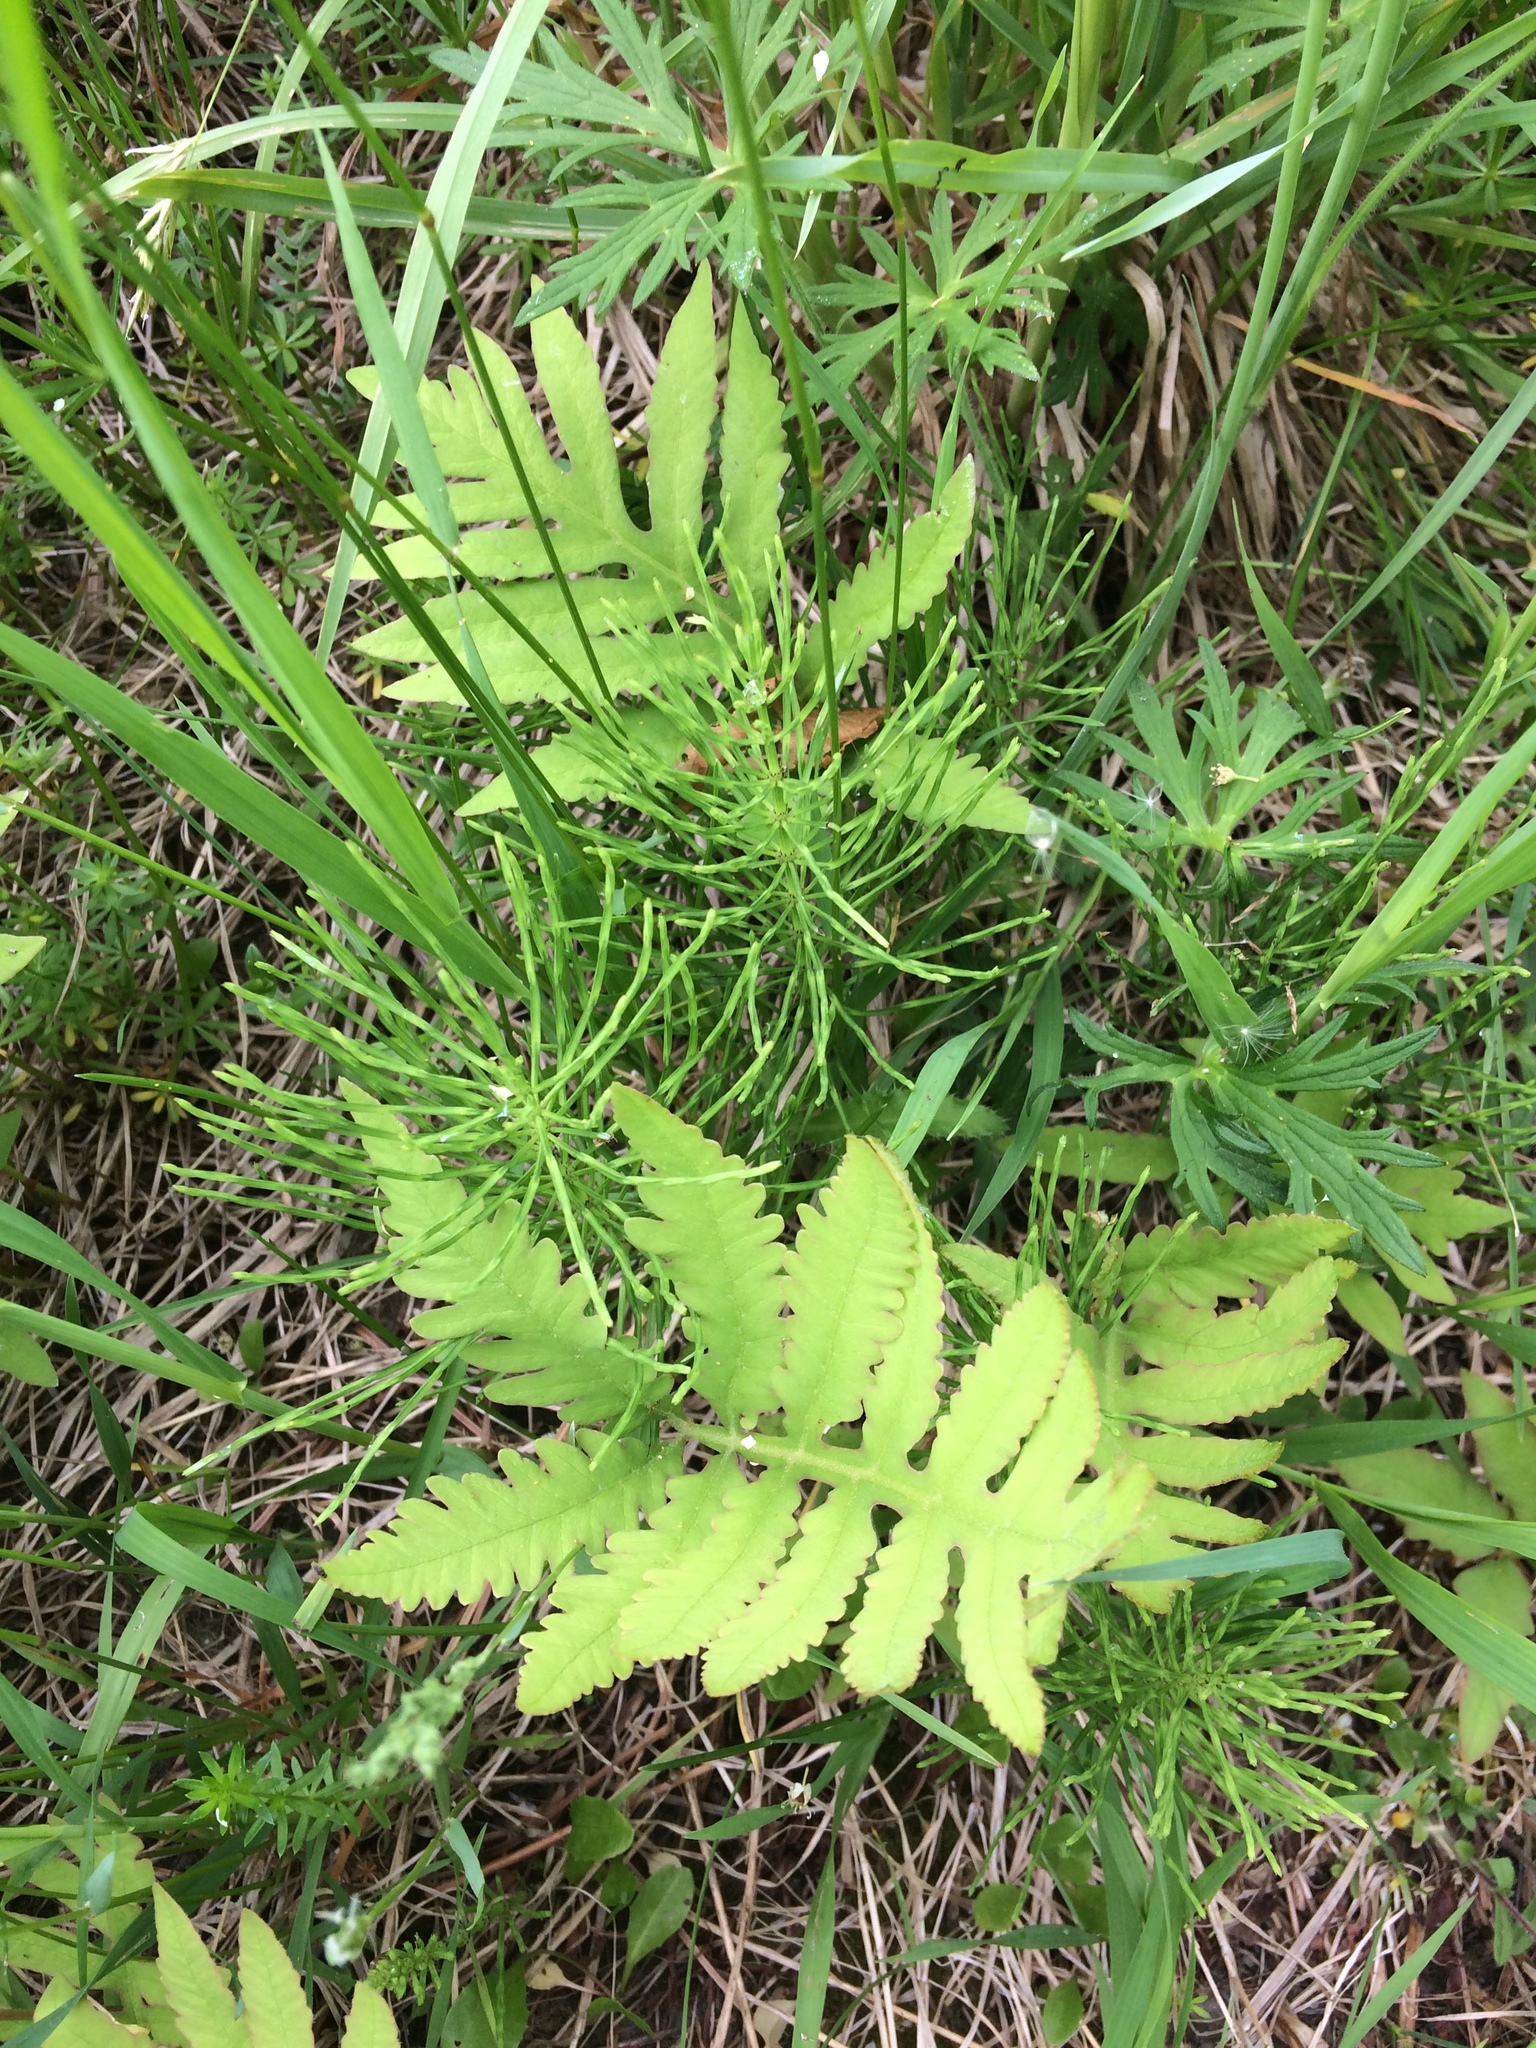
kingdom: Plantae
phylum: Tracheophyta
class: Polypodiopsida
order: Equisetales
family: Equisetaceae
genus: Equisetum
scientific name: Equisetum arvense
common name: Field horsetail
